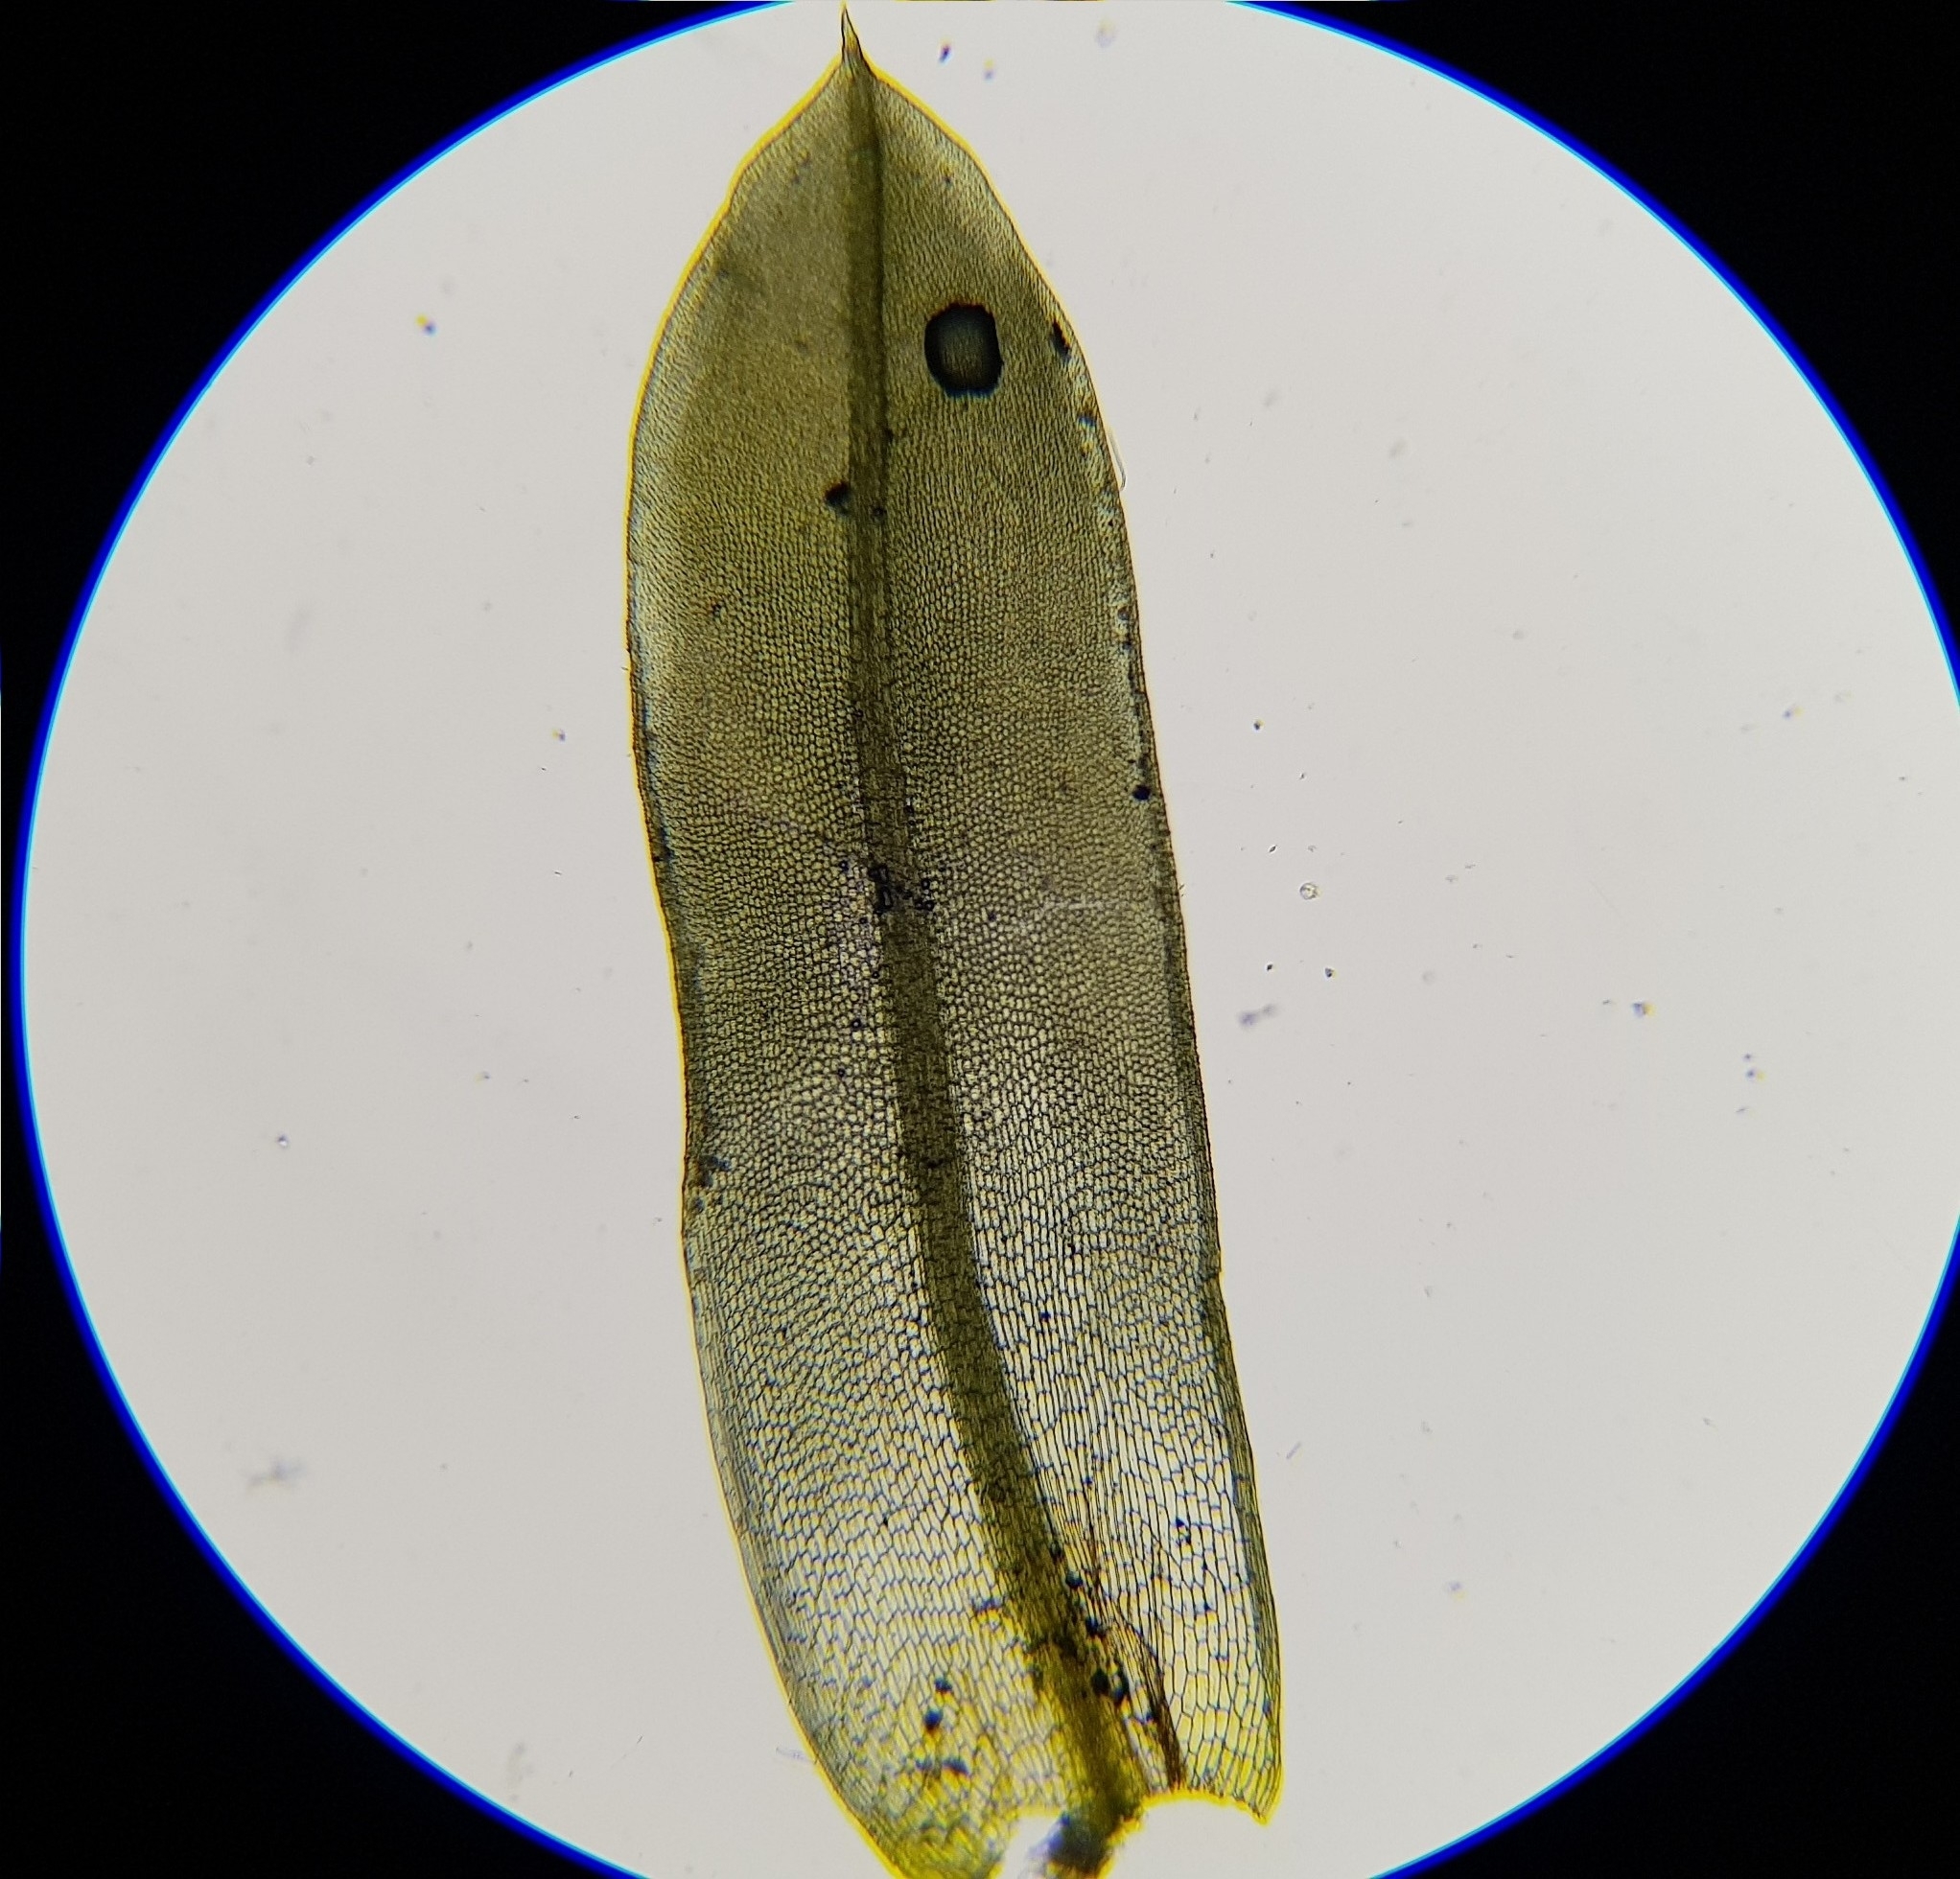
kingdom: Plantae
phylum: Bryophyta
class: Bryopsida
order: Pottiales
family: Pottiaceae
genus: Tortula
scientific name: Tortula subulata
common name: Upright screw-moss
